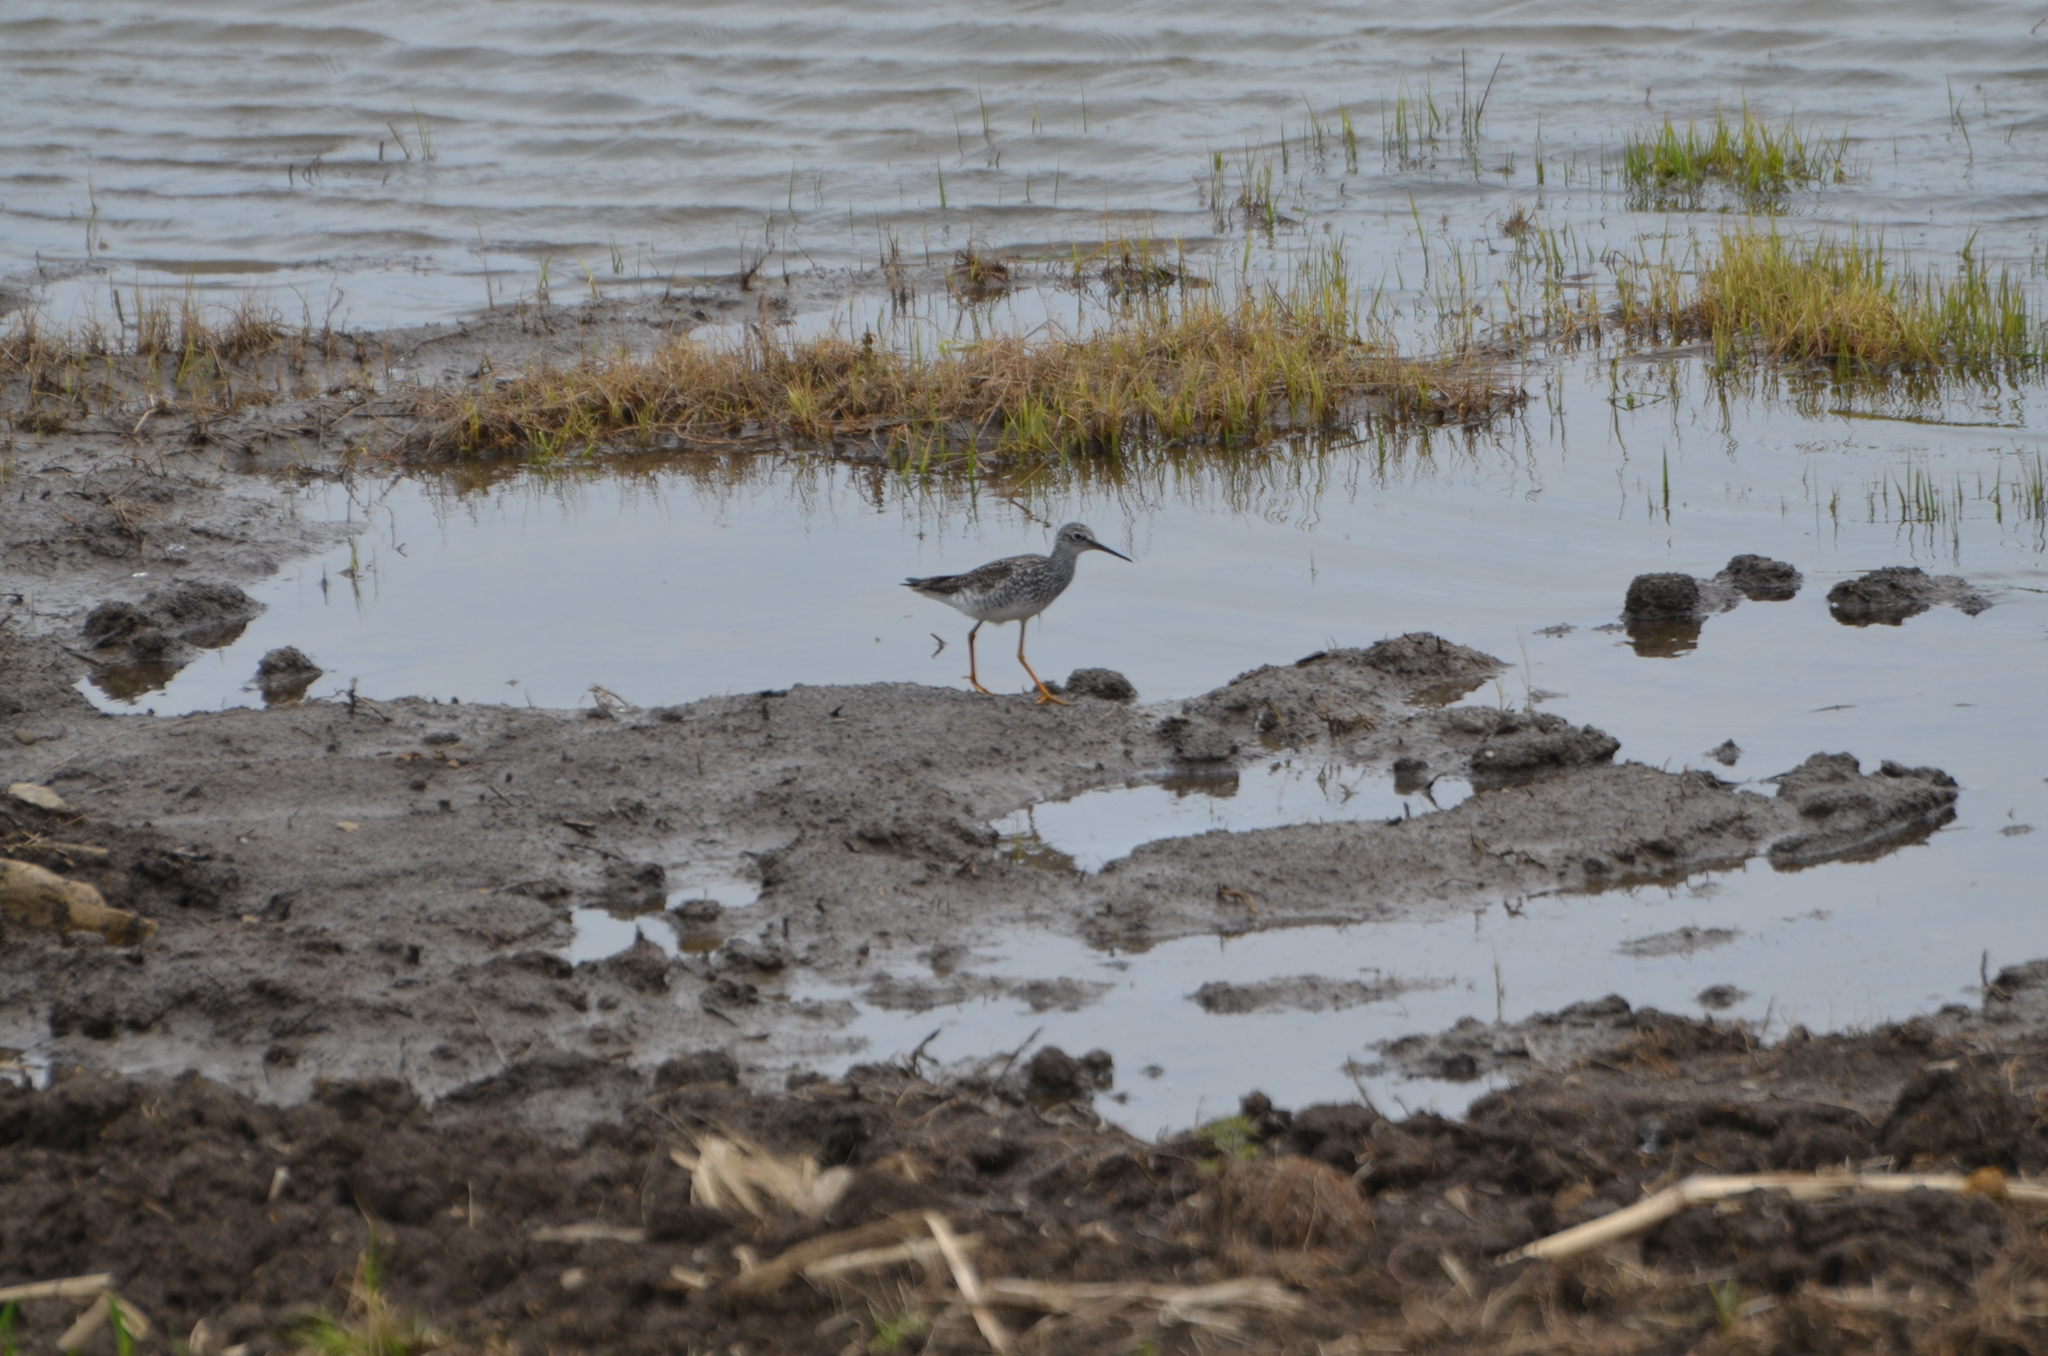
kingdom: Animalia
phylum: Chordata
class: Aves
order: Charadriiformes
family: Scolopacidae
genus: Tringa
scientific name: Tringa melanoleuca
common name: Greater yellowlegs
